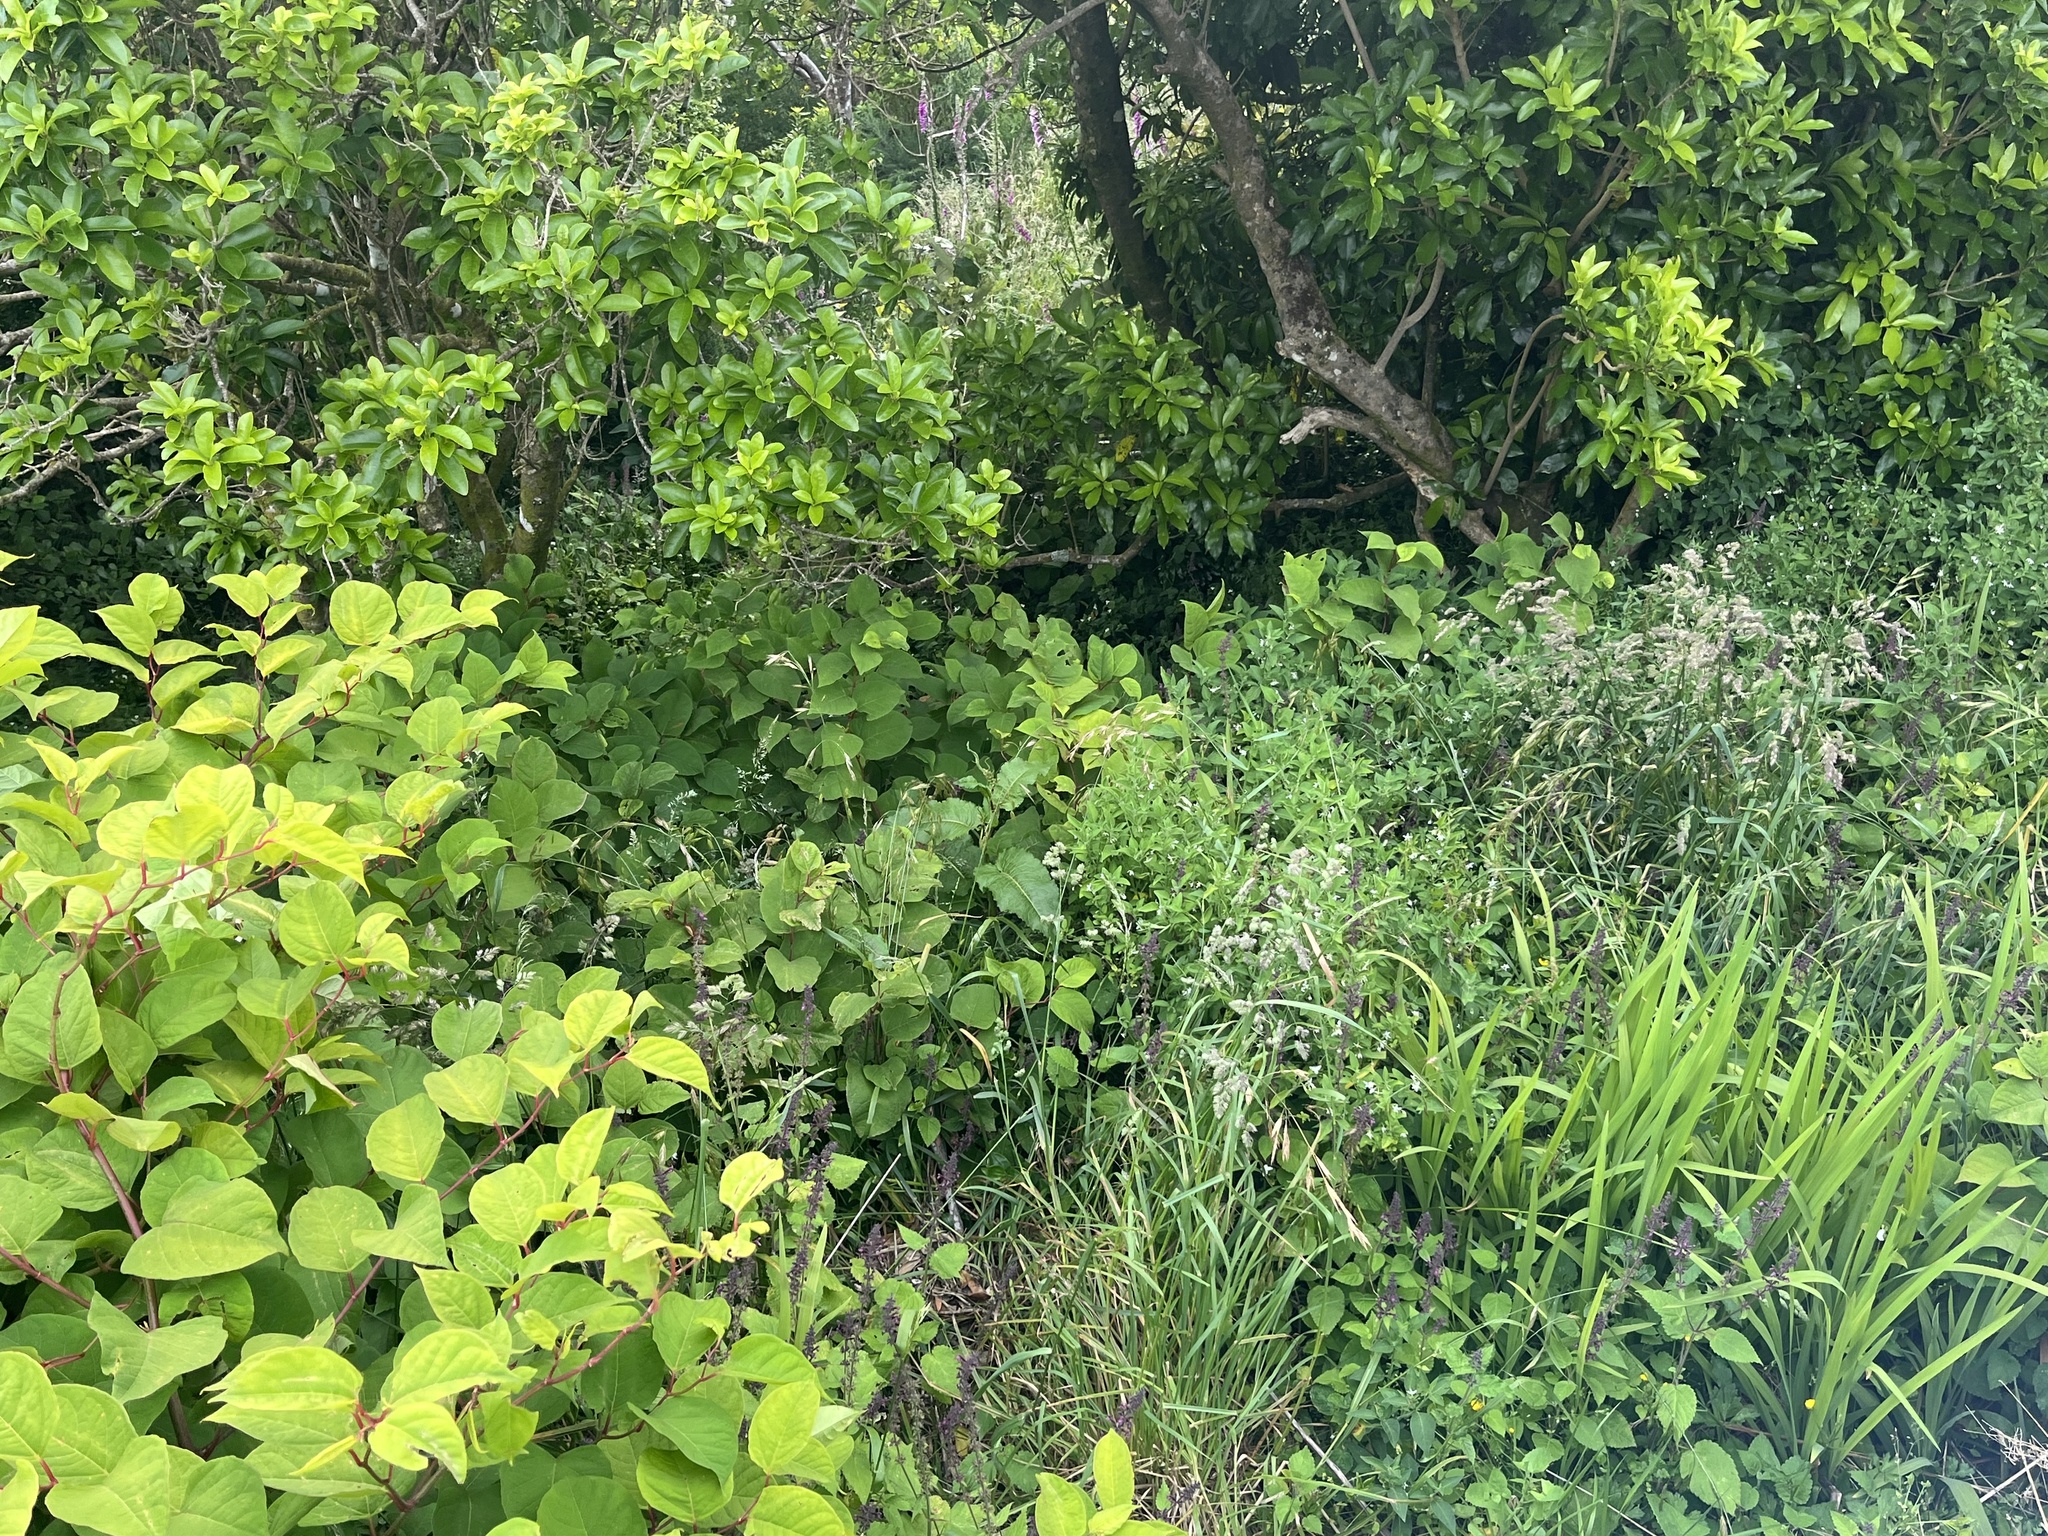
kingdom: Plantae
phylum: Tracheophyta
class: Magnoliopsida
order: Caryophyllales
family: Polygonaceae
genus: Reynoutria
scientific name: Reynoutria japonica
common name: Japanese knotweed
